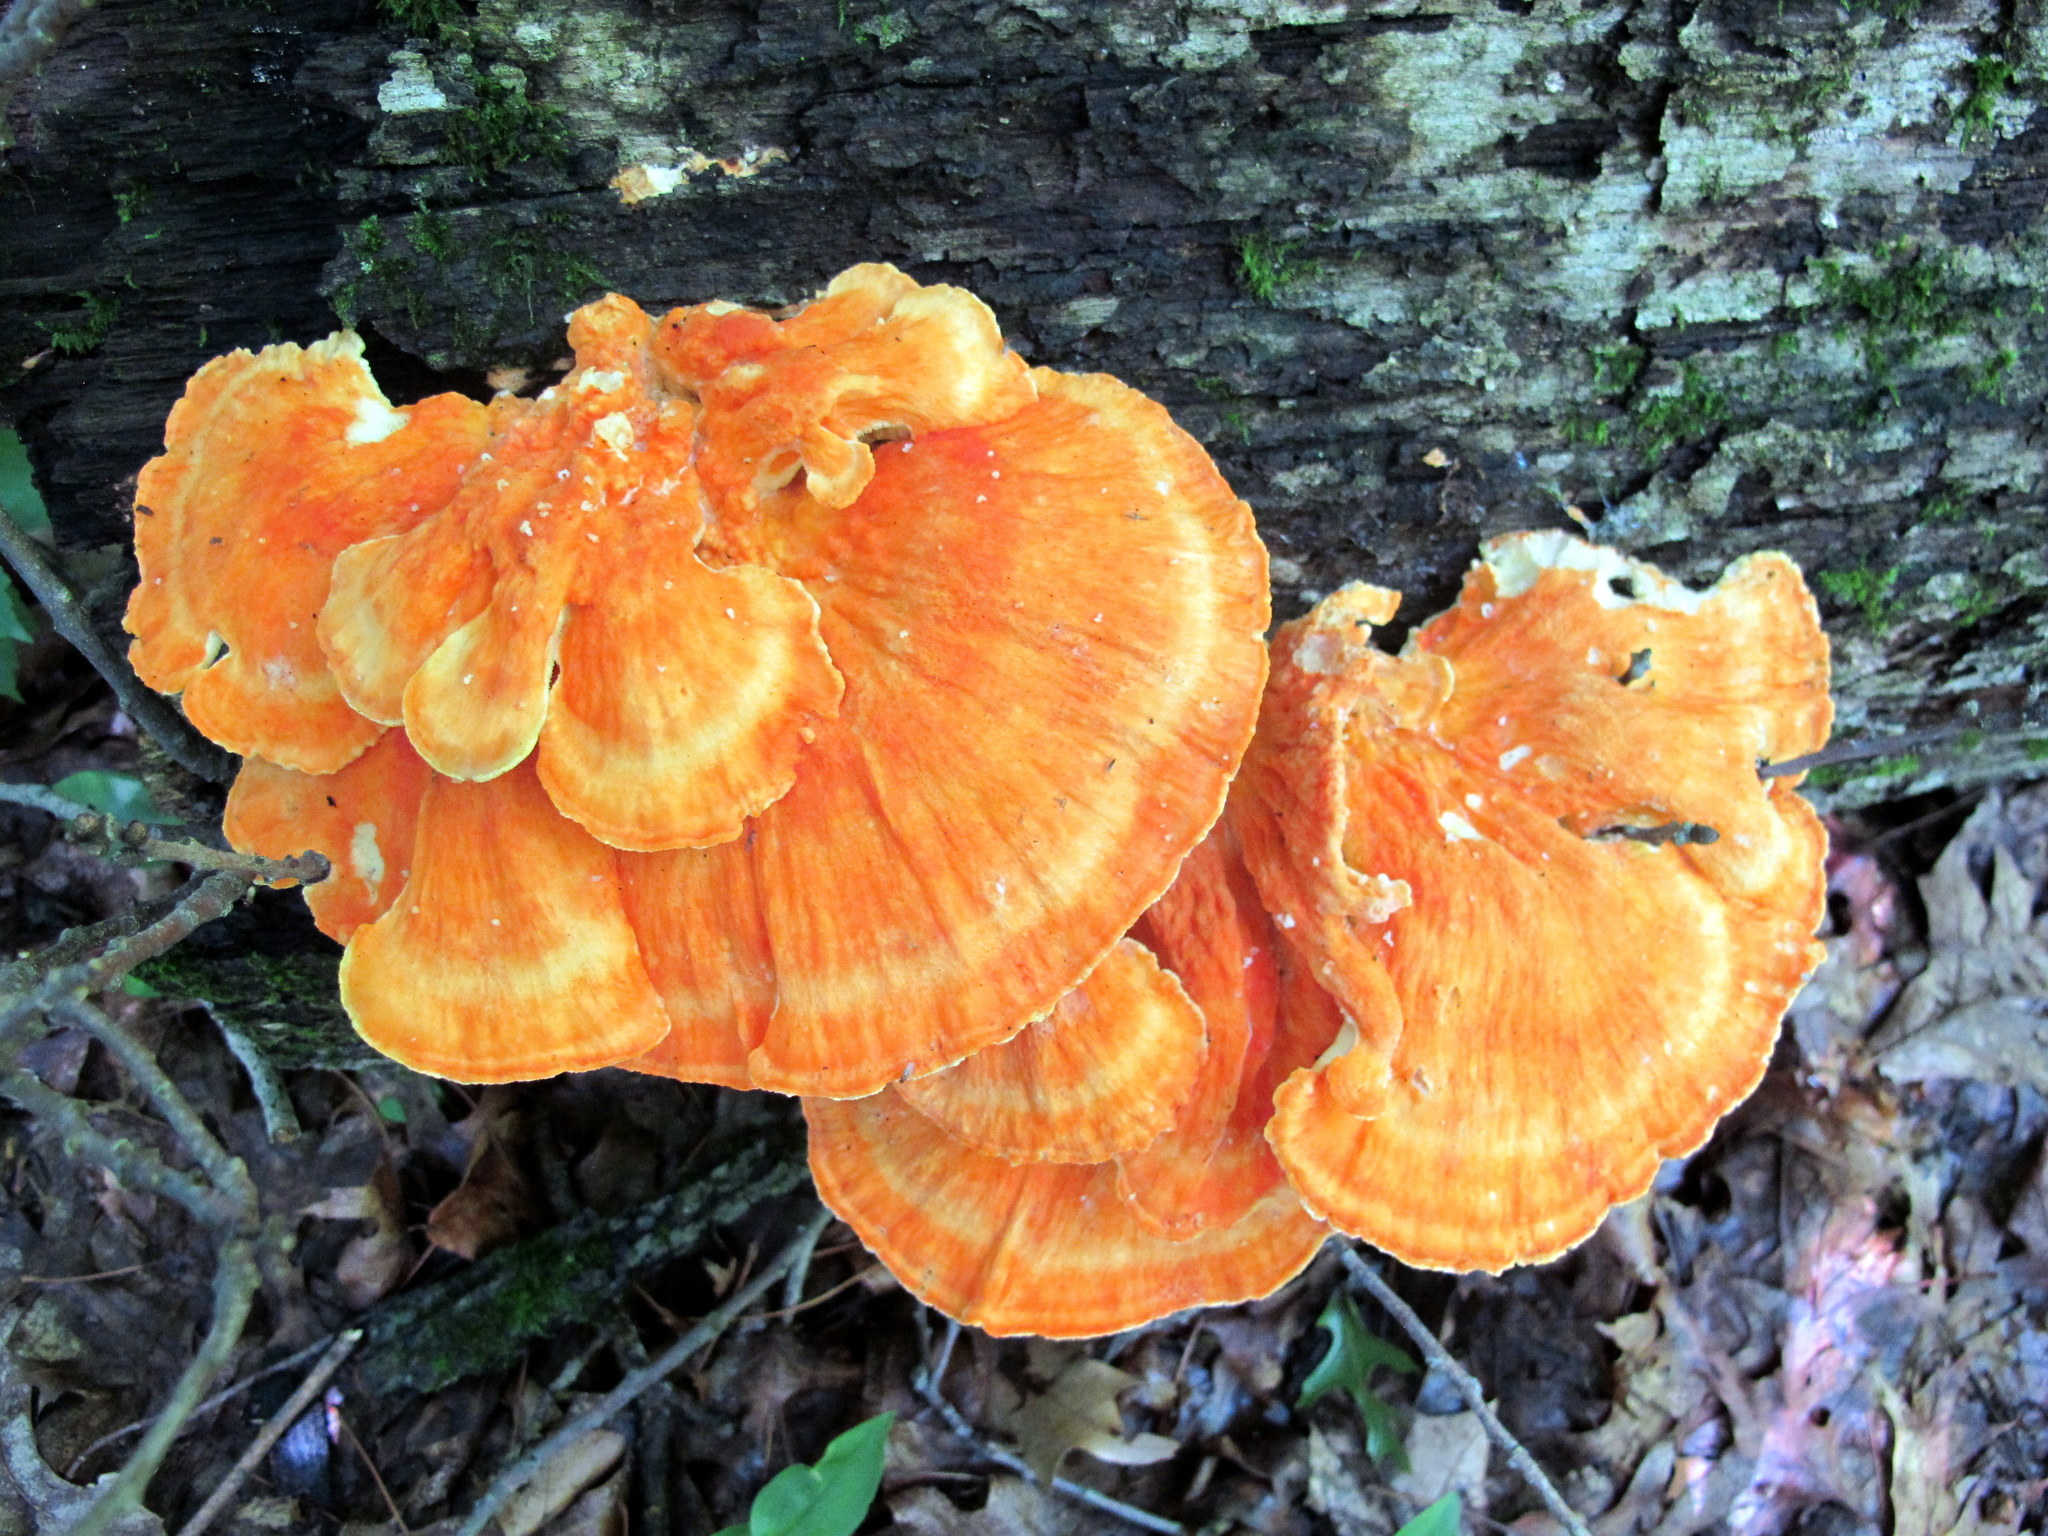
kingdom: Fungi
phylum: Basidiomycota
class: Agaricomycetes
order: Polyporales
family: Laetiporaceae
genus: Laetiporus
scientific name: Laetiporus sulphureus
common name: Chicken of the woods
